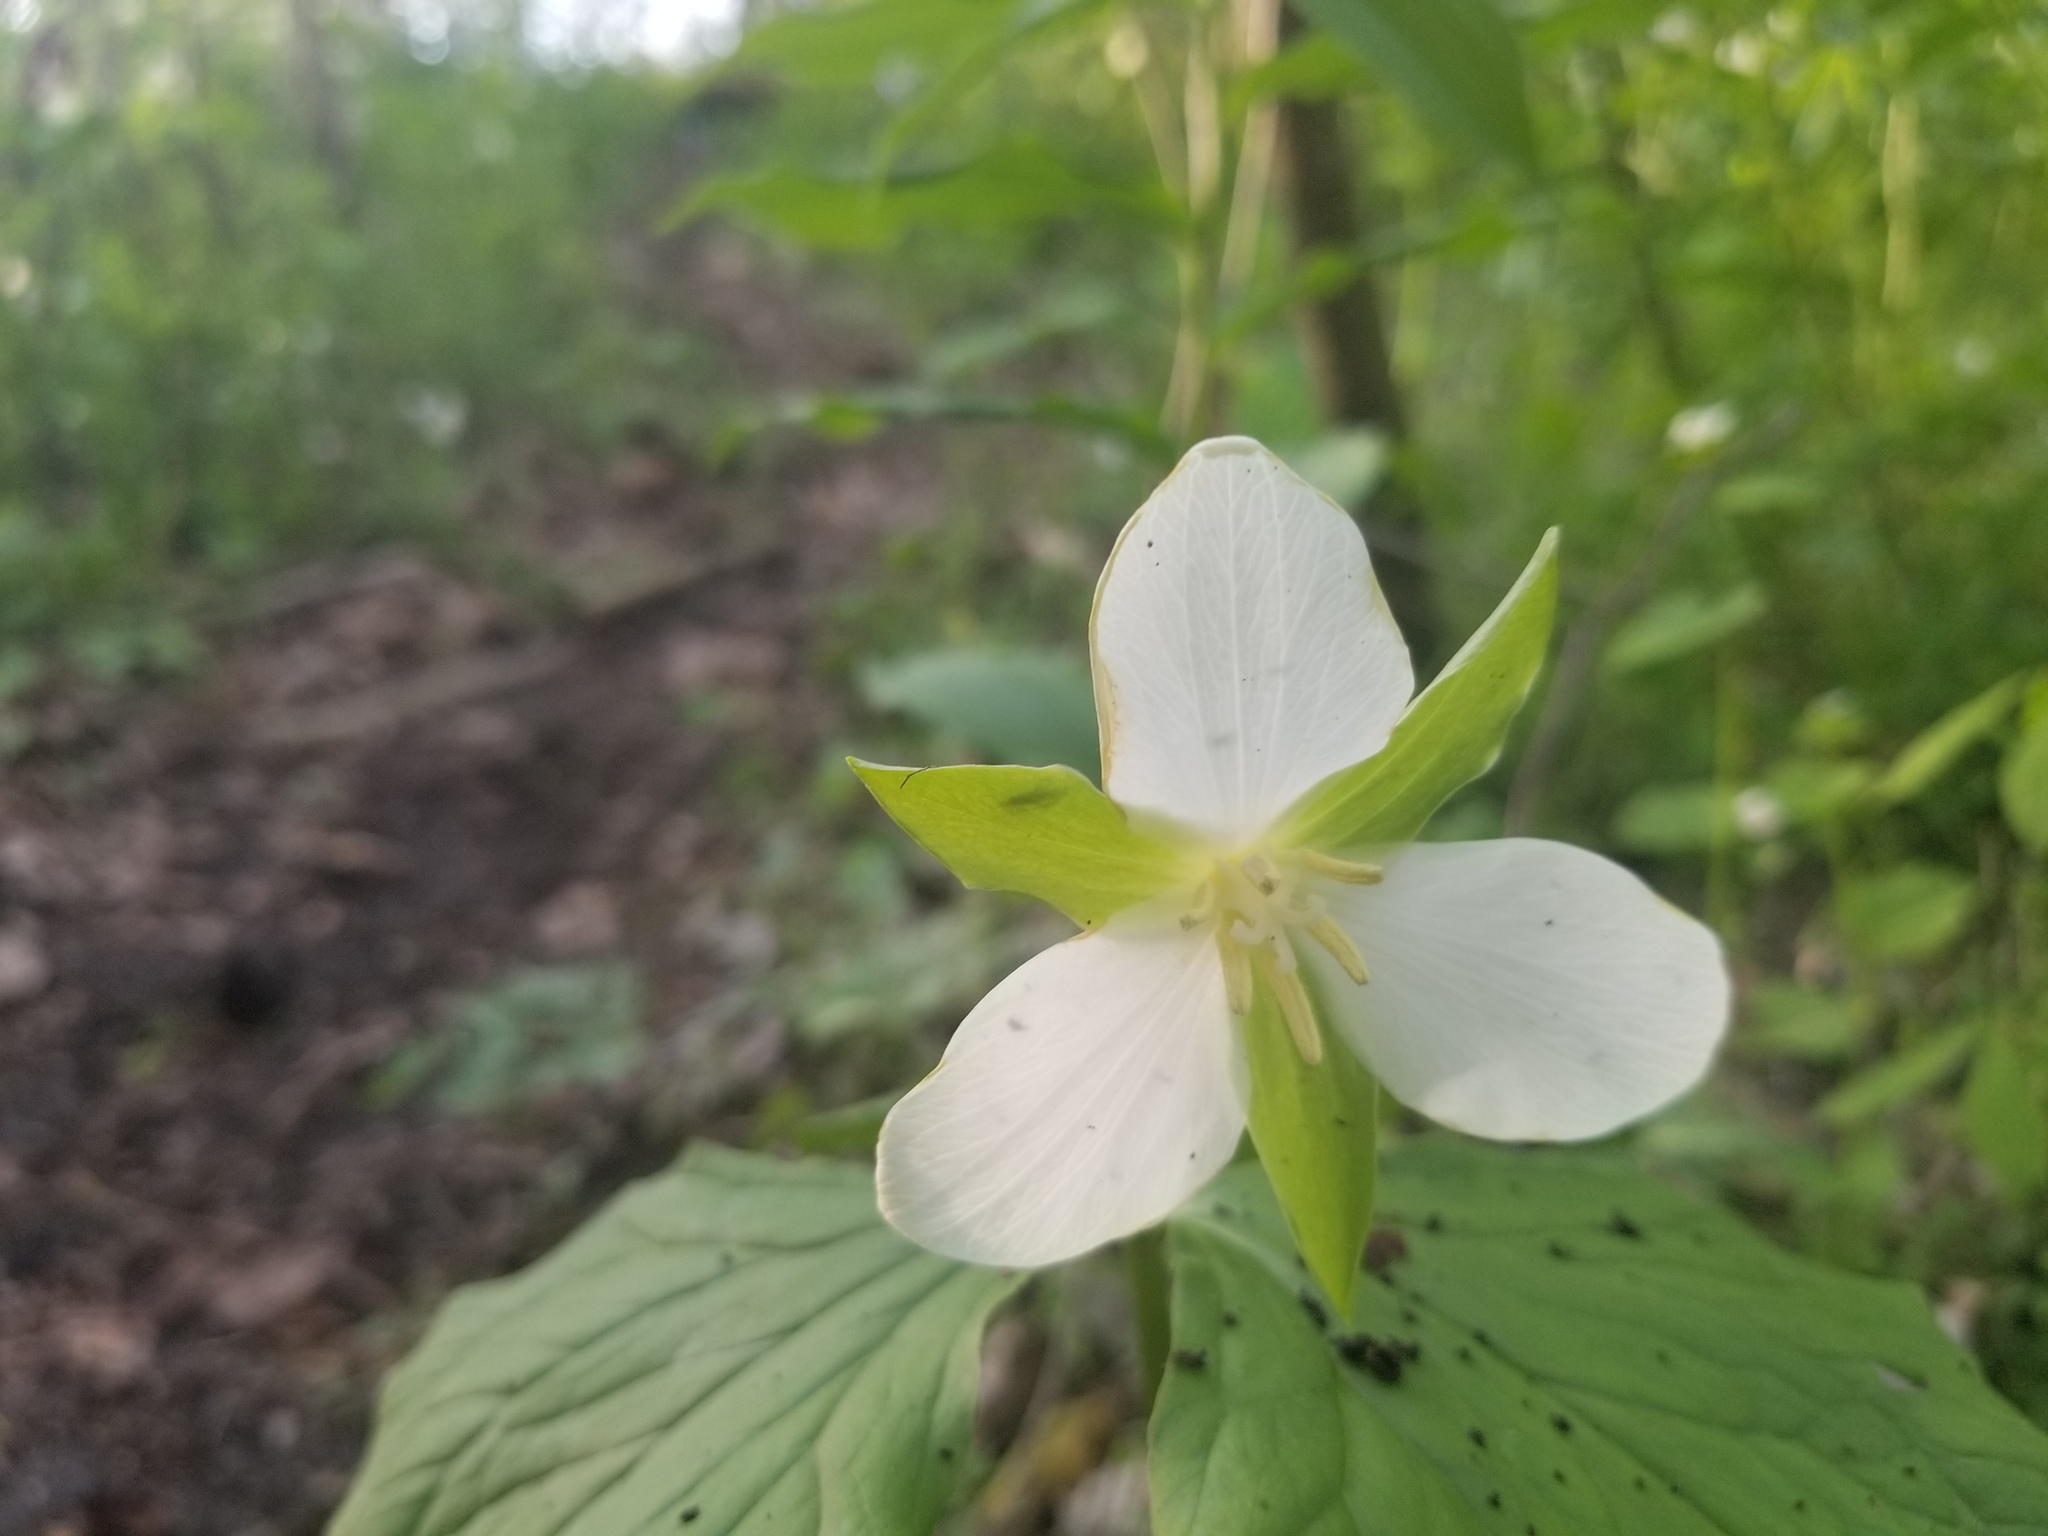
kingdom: Plantae
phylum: Tracheophyta
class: Liliopsida
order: Liliales
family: Melanthiaceae
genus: Trillium
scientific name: Trillium flexipes
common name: Drooping trillium
